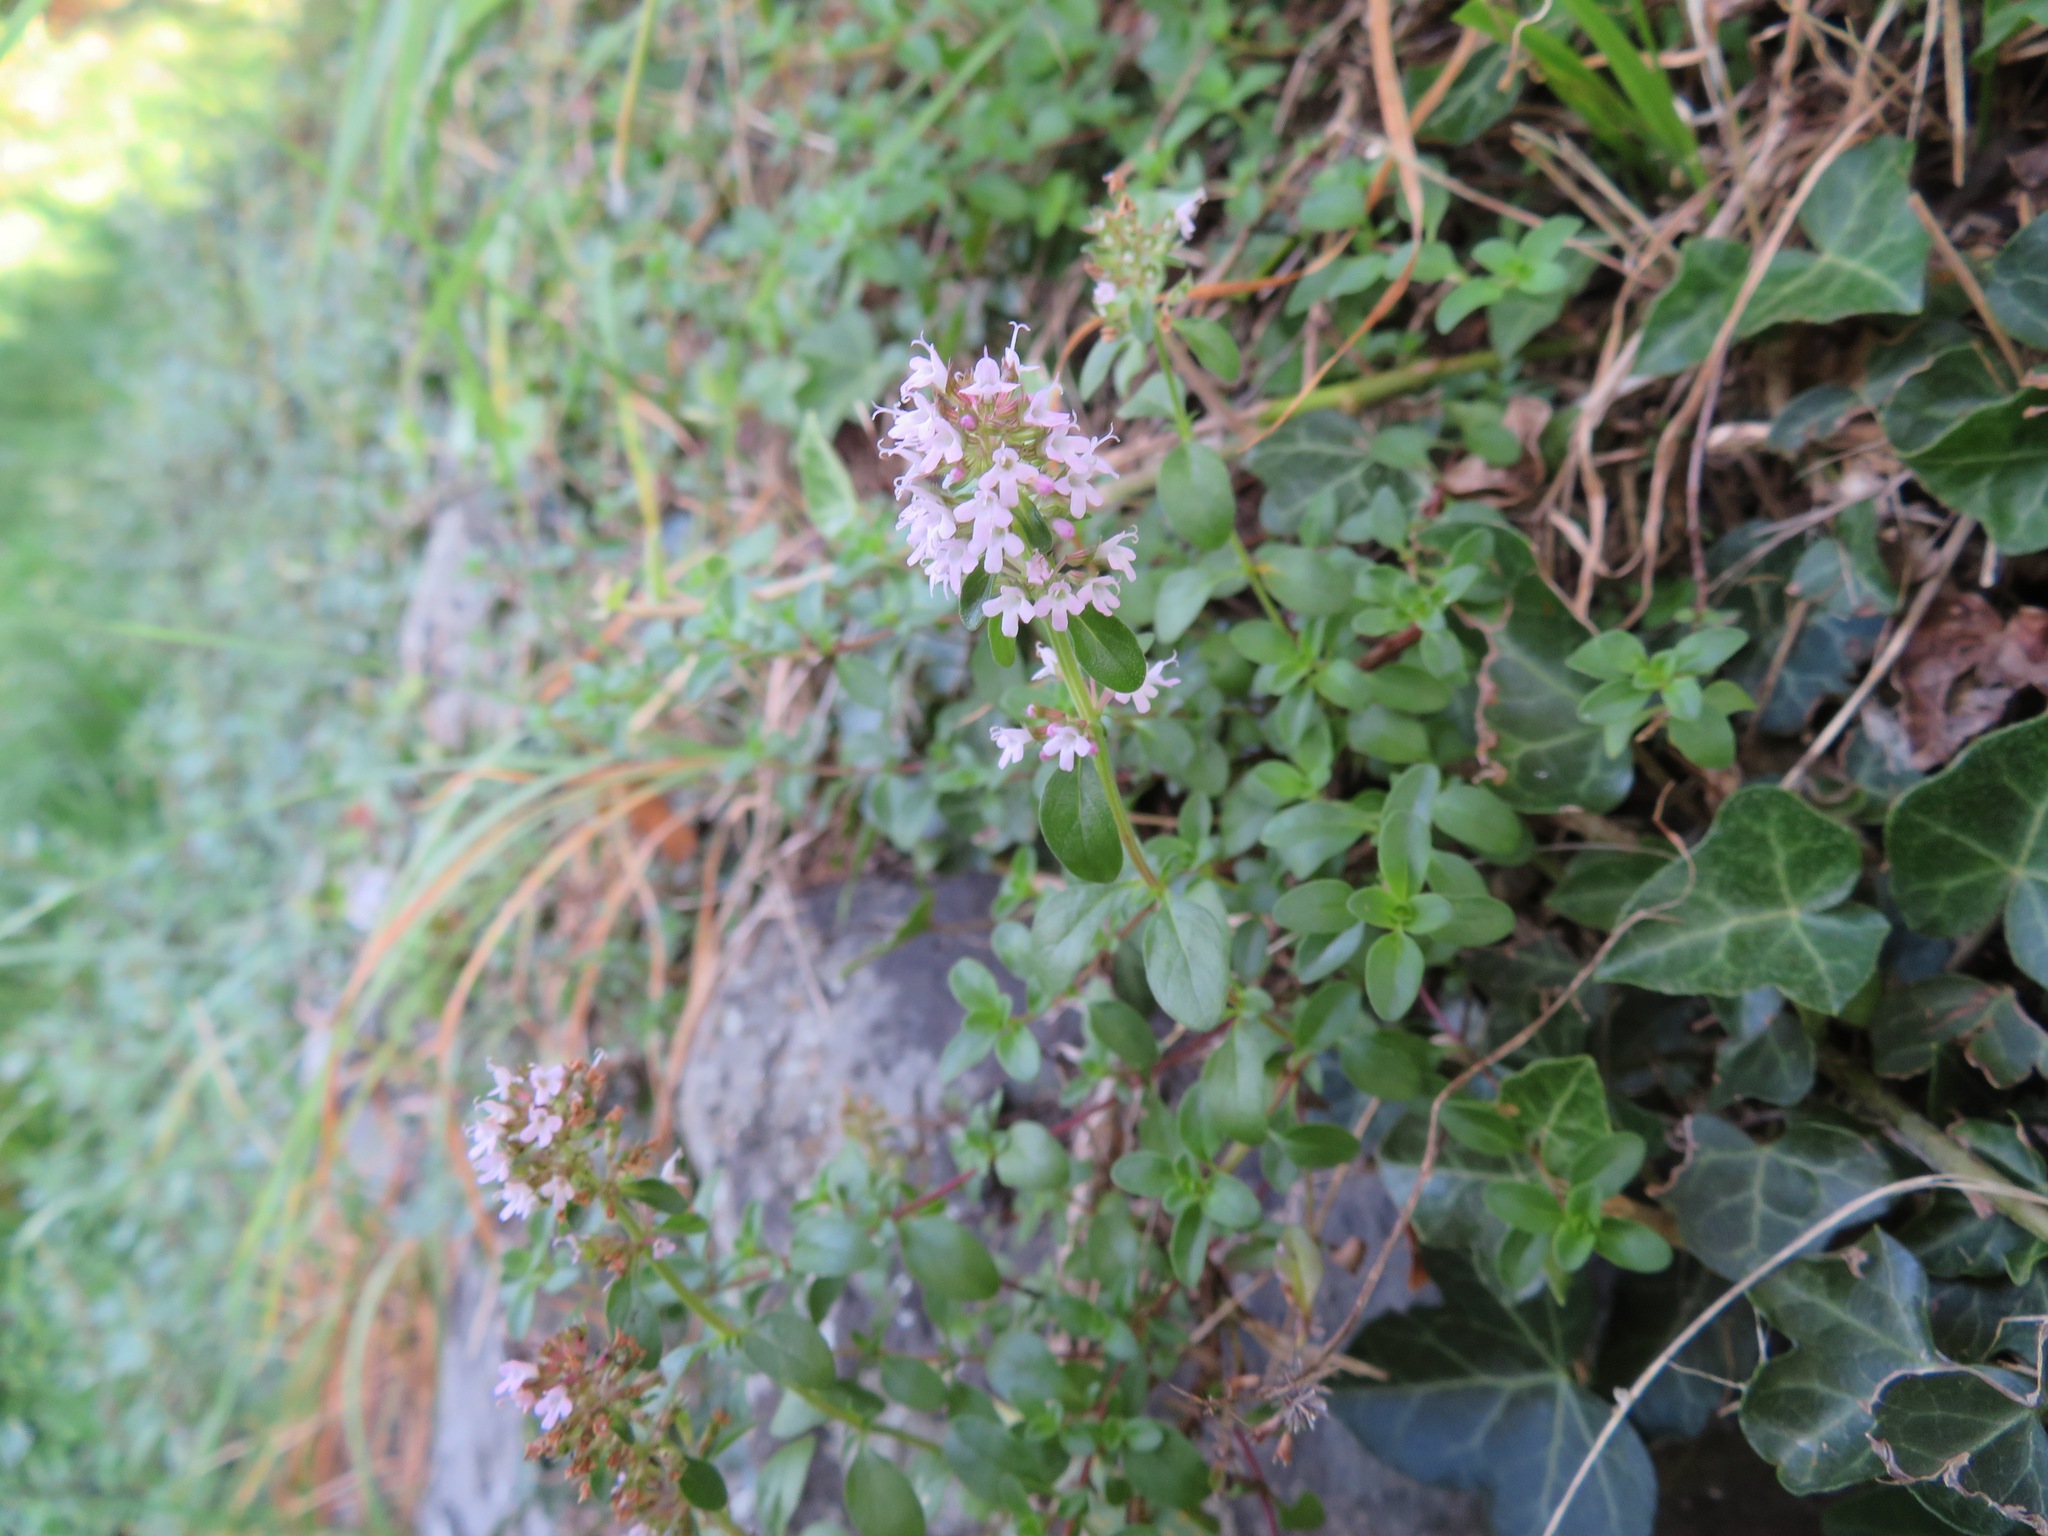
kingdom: Plantae
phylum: Tracheophyta
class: Magnoliopsida
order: Lamiales
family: Lamiaceae
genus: Thymus
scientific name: Thymus pulegioides
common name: Large thyme
